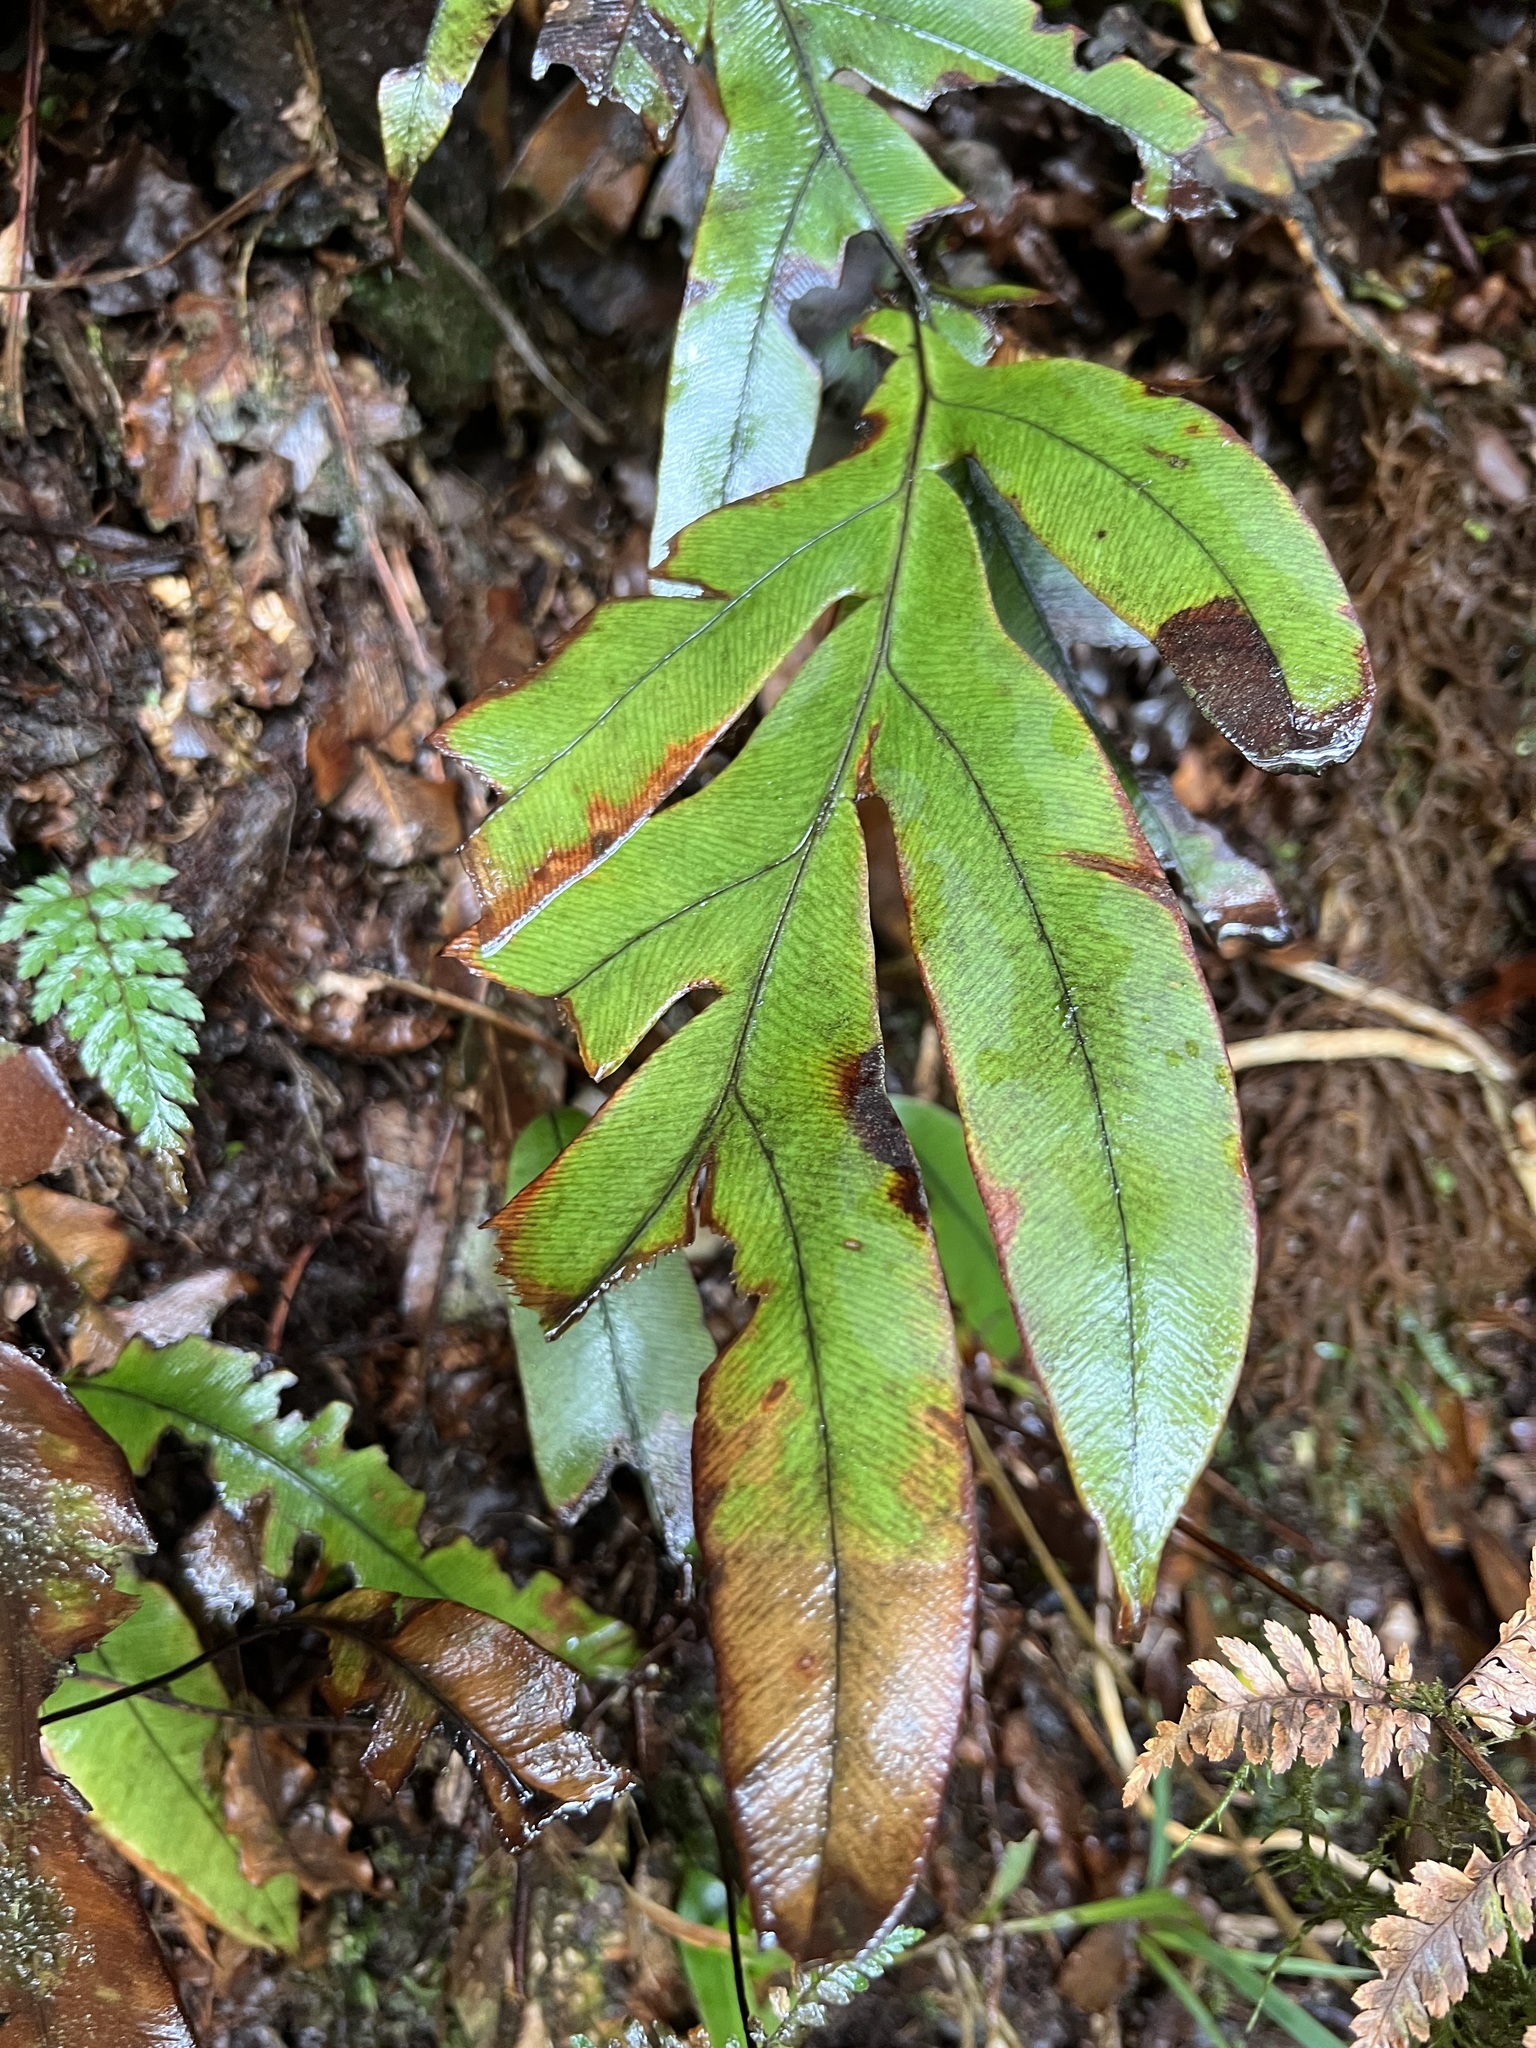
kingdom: Plantae
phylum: Tracheophyta
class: Polypodiopsida
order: Polypodiales
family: Blechnaceae
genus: Austroblechnum
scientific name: Austroblechnum colensoi
